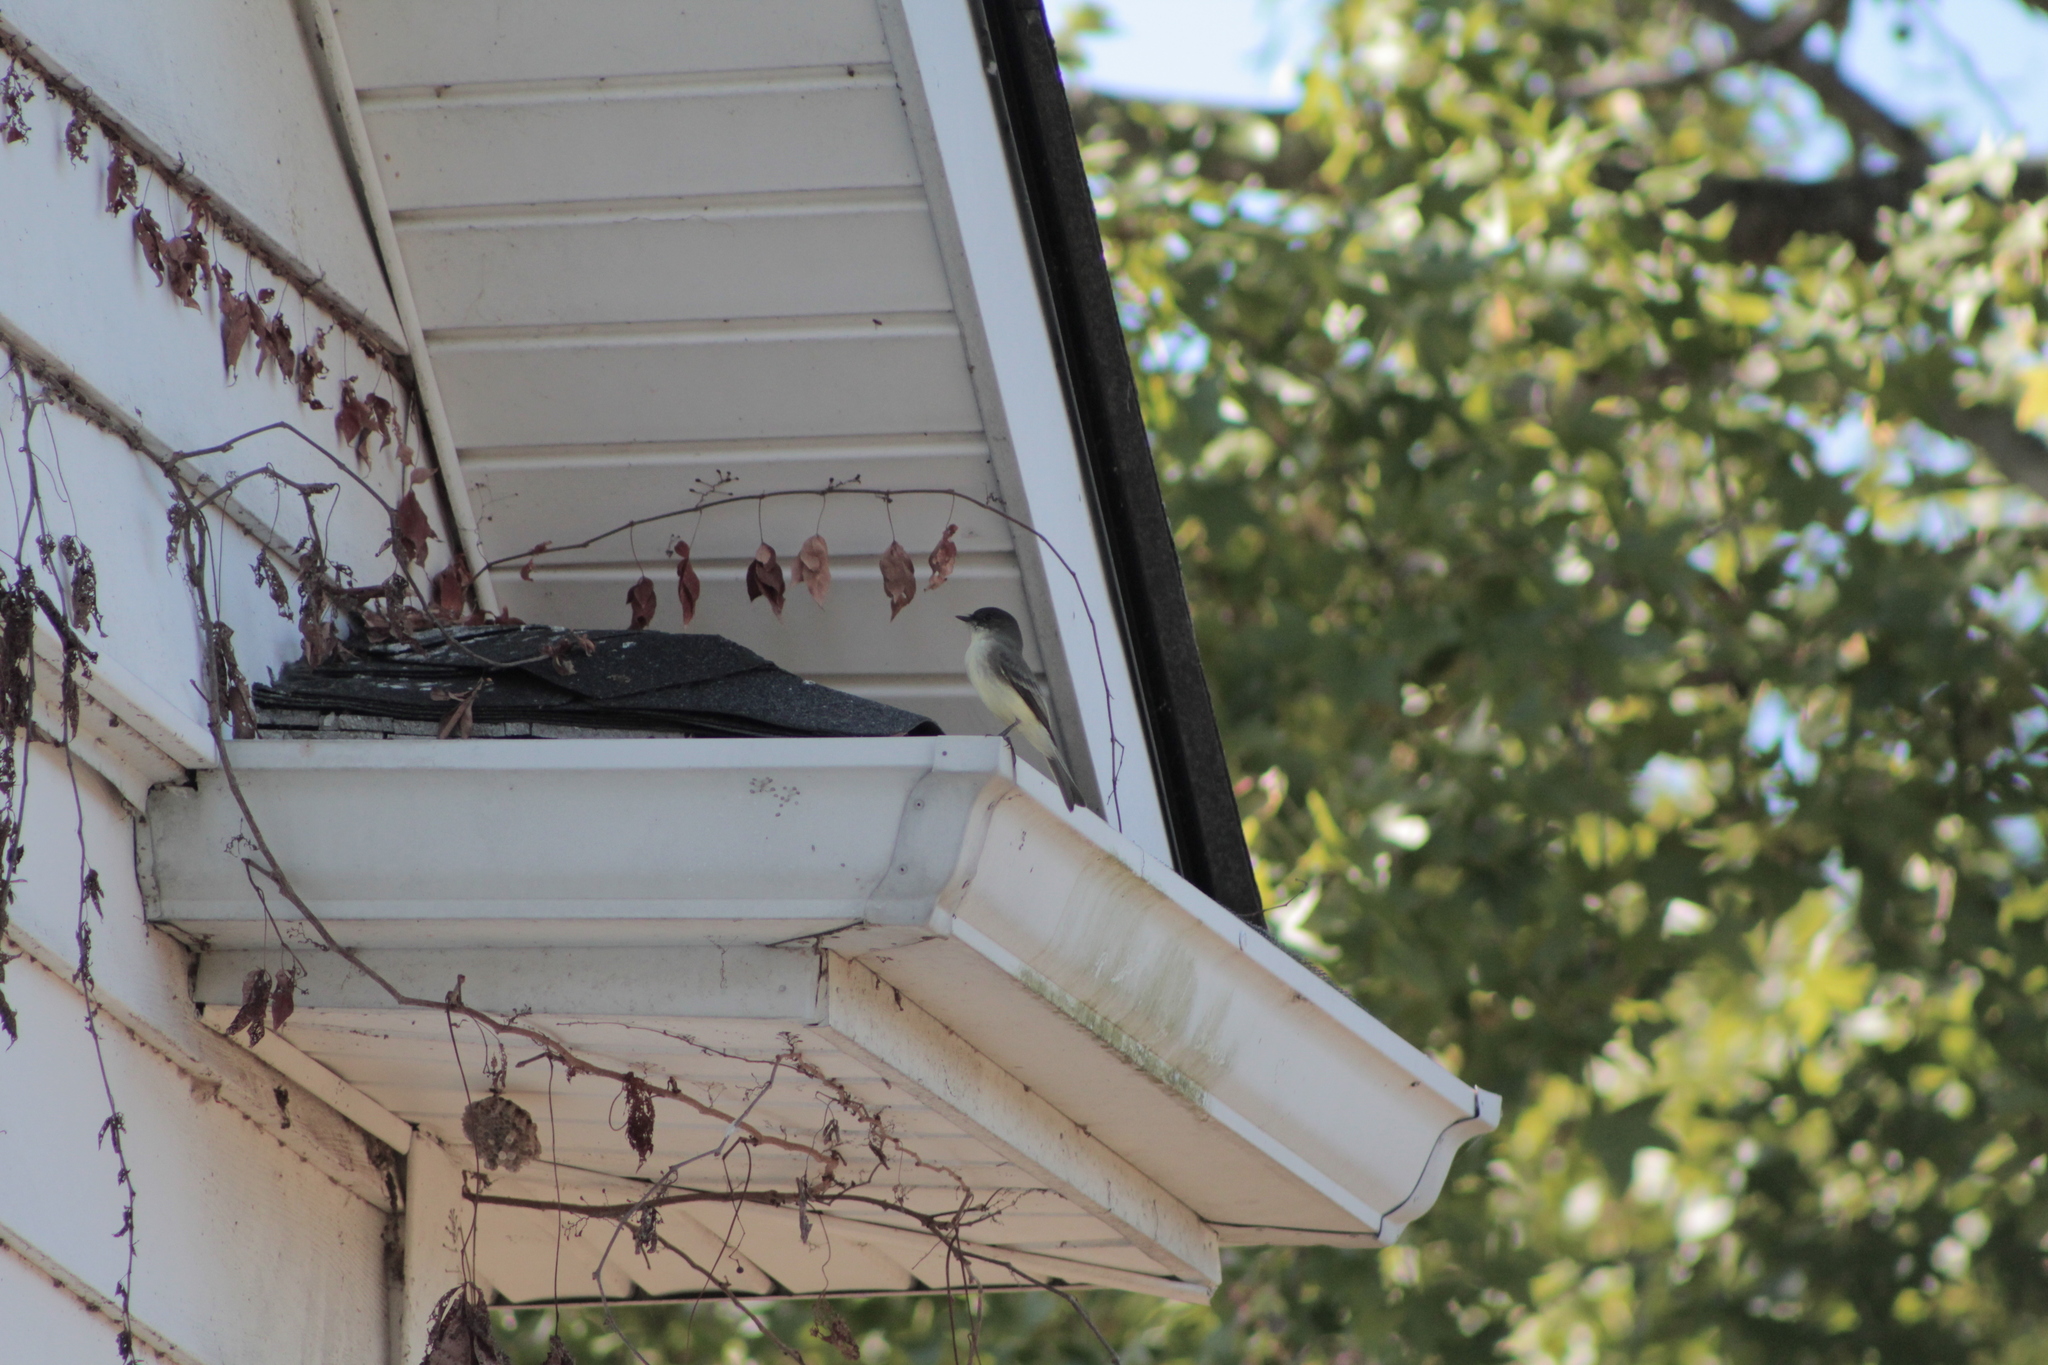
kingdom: Animalia
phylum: Chordata
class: Aves
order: Passeriformes
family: Tyrannidae
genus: Sayornis
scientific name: Sayornis phoebe
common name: Eastern phoebe
